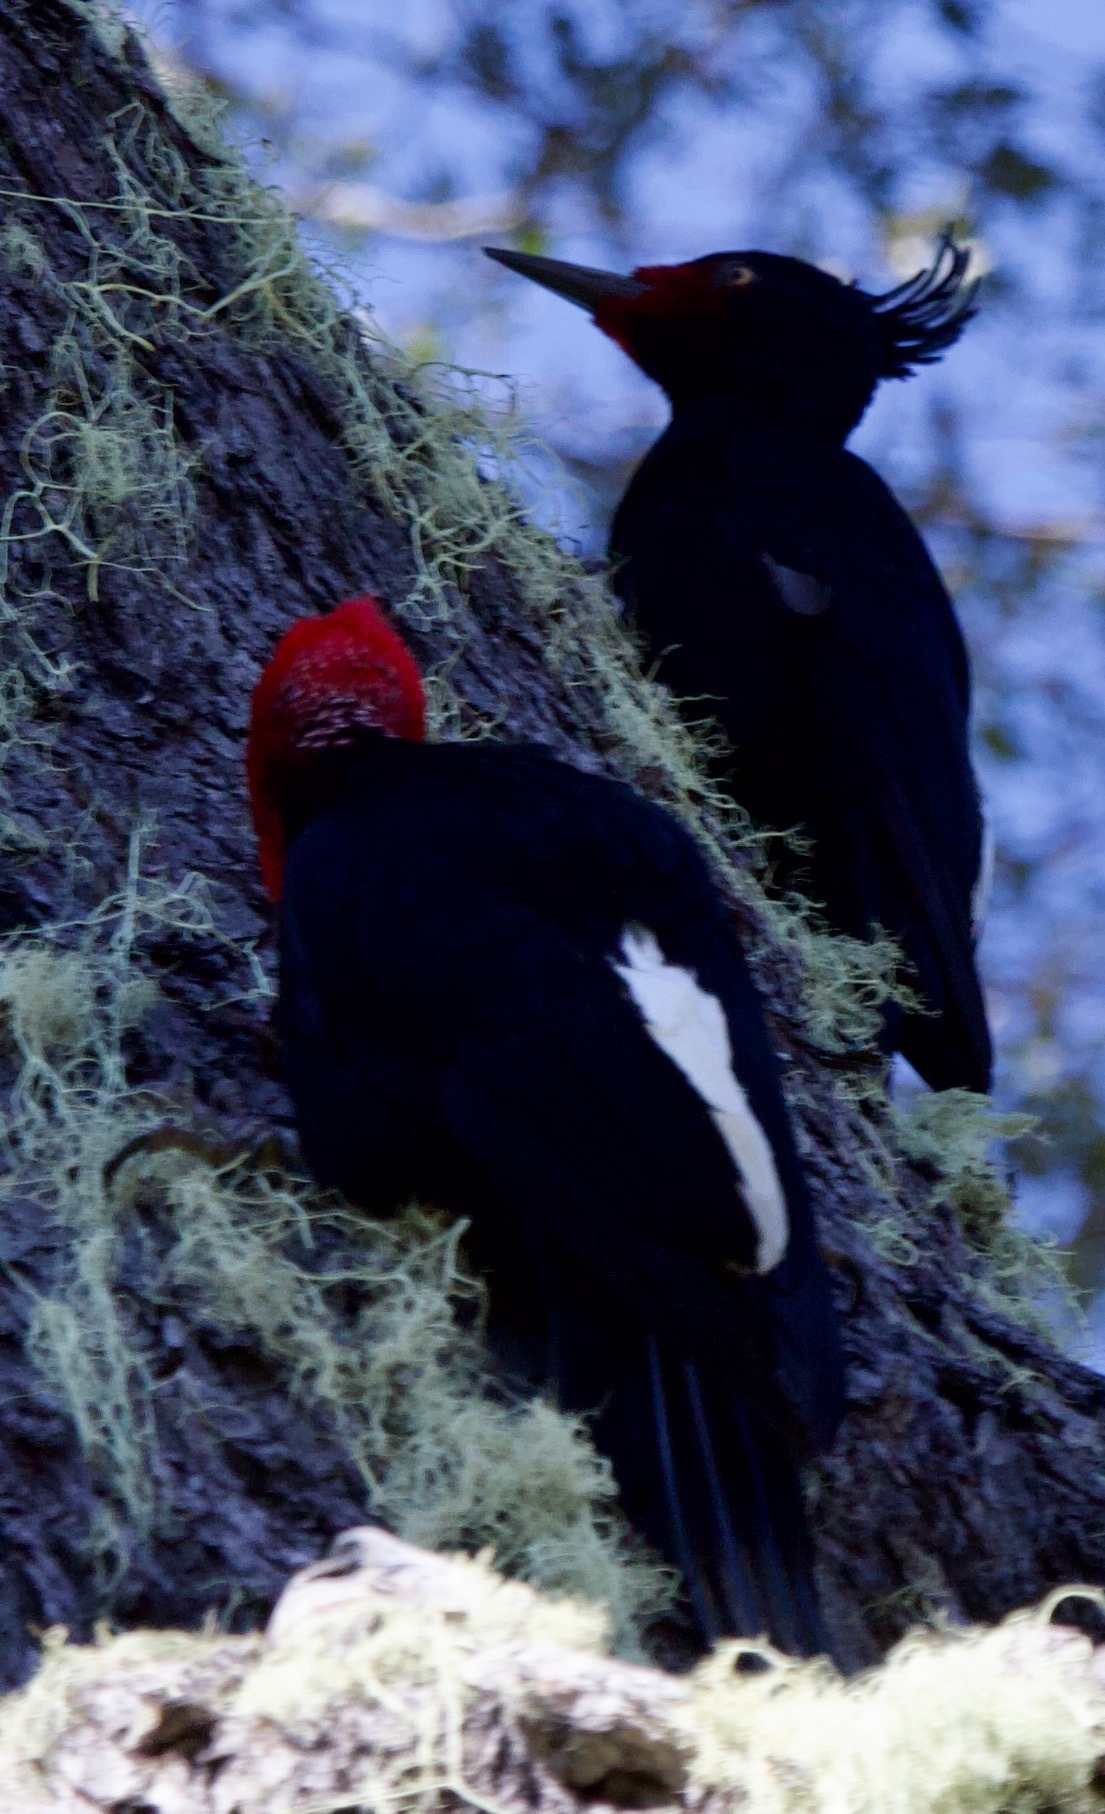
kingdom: Animalia
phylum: Chordata
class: Aves
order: Piciformes
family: Picidae
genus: Campephilus
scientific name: Campephilus magellanicus
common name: Magellanic woodpecker
